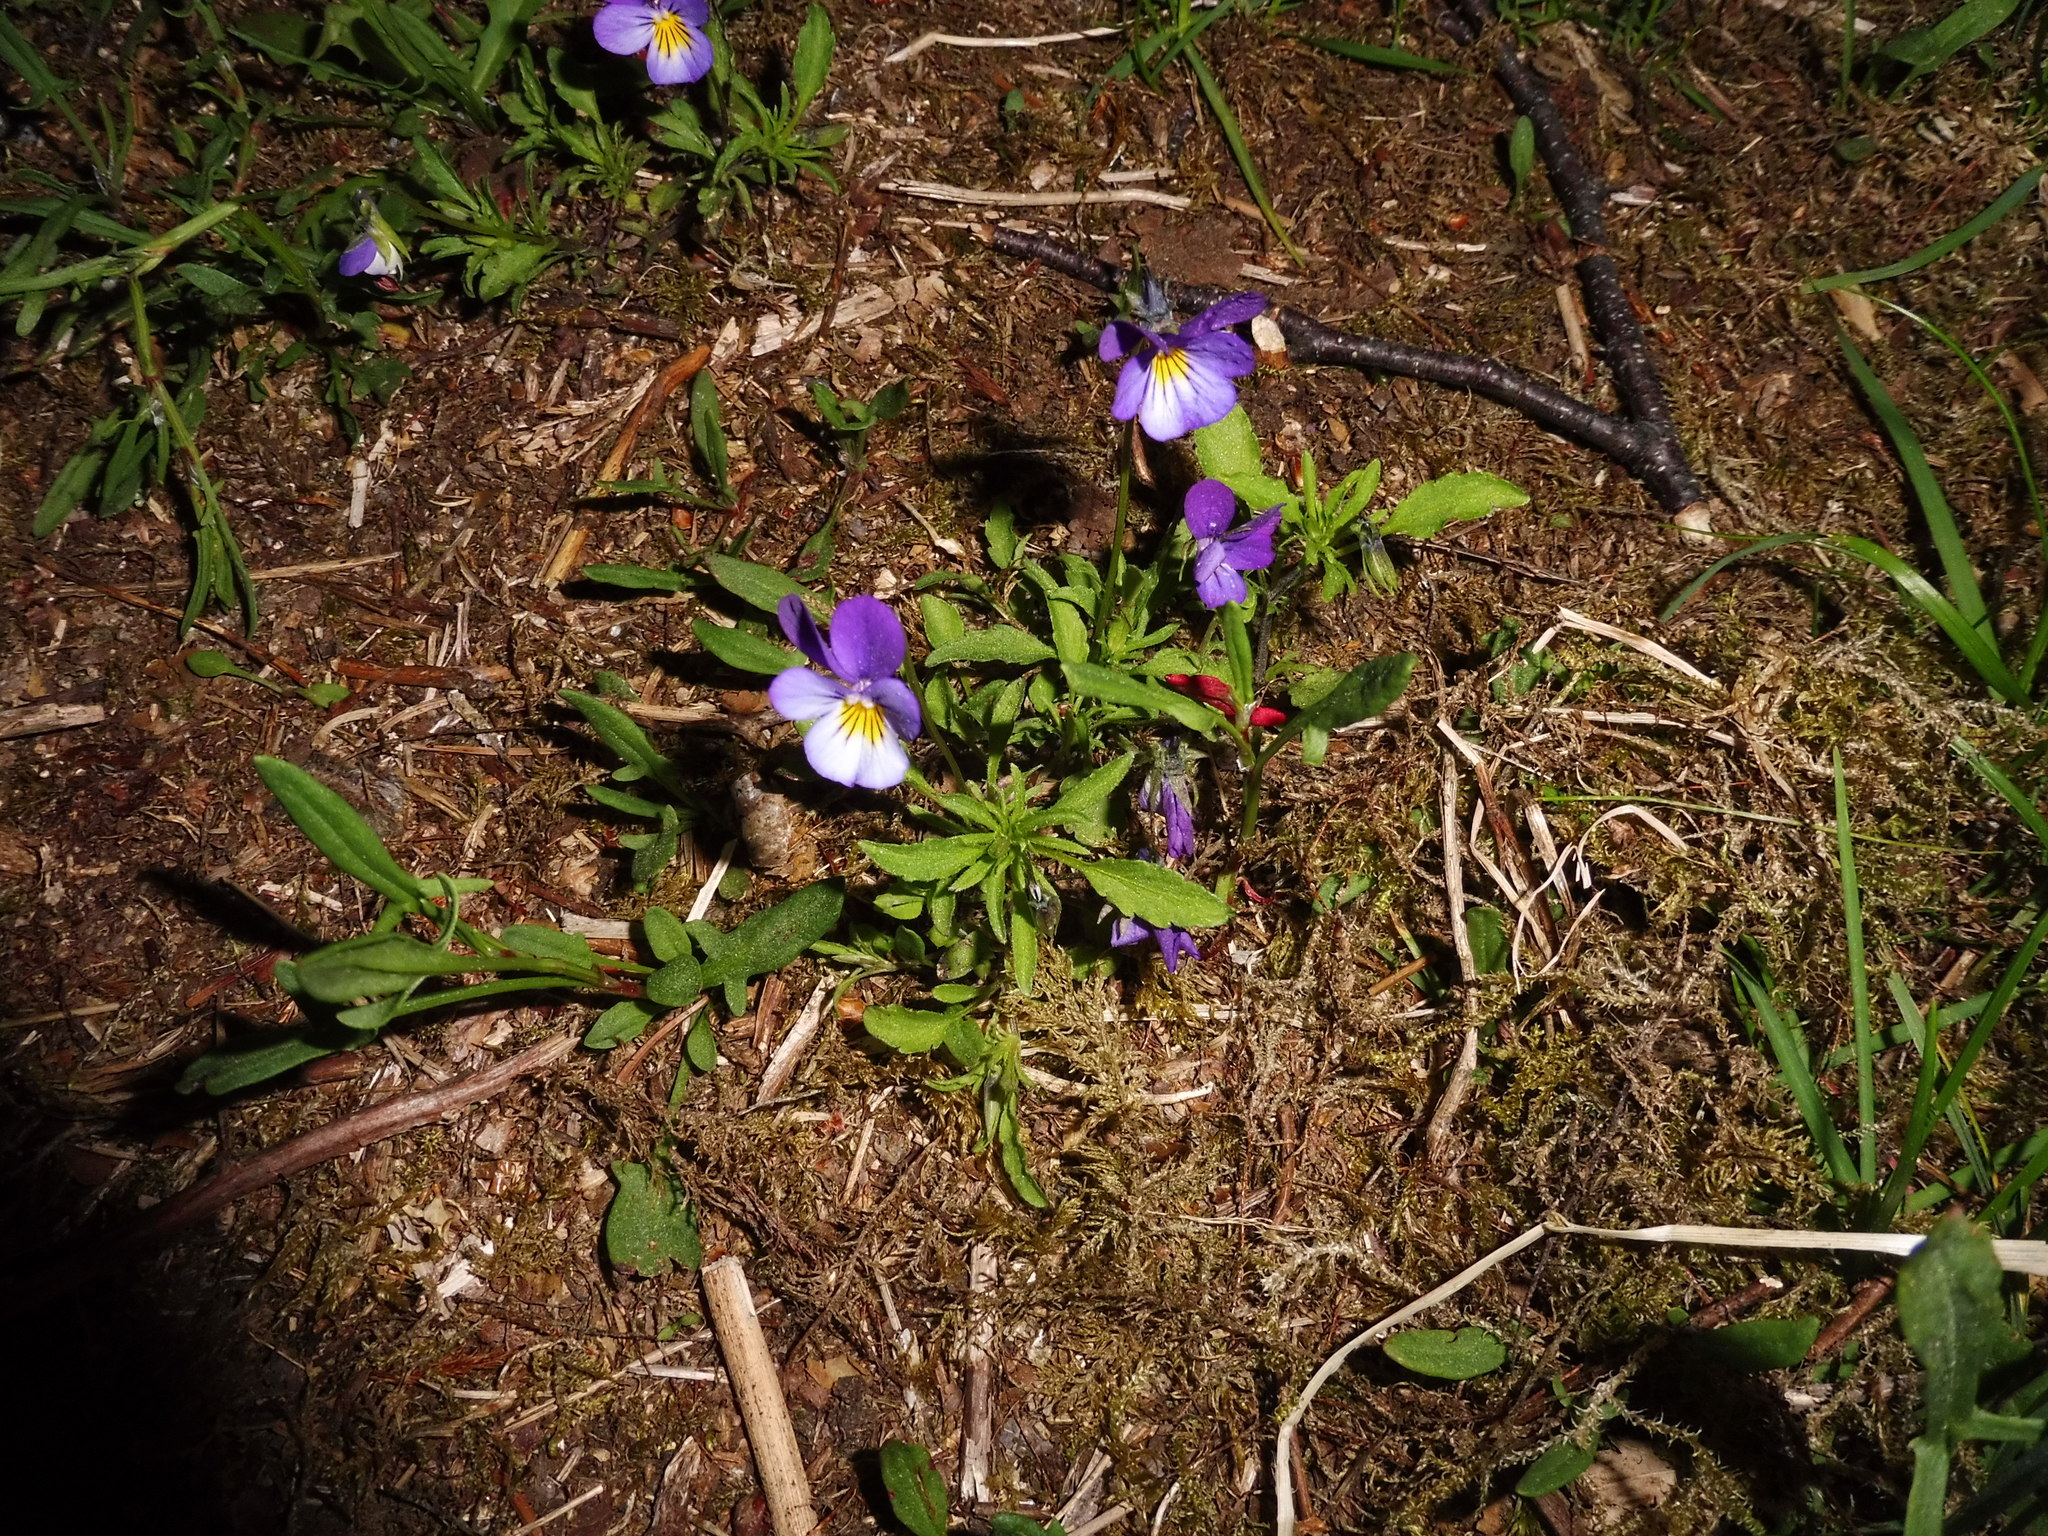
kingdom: Plantae
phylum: Tracheophyta
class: Magnoliopsida
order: Malpighiales
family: Violaceae
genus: Viola
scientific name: Viola tricolor
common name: Pansy
